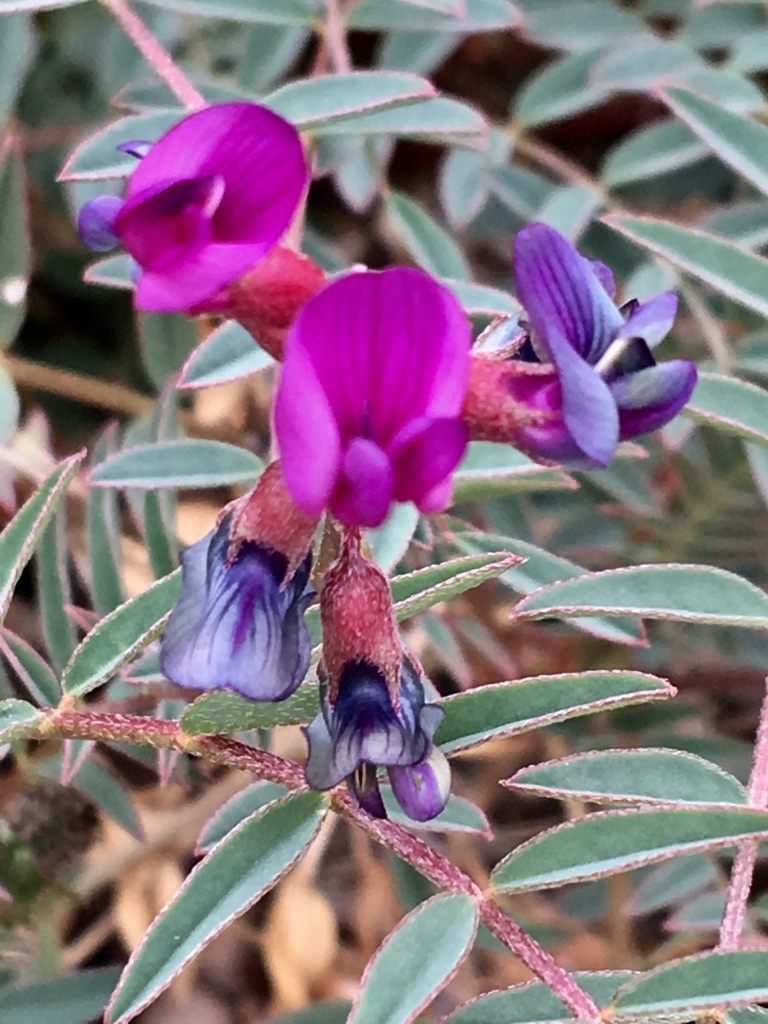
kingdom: Plantae
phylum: Tracheophyta
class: Magnoliopsida
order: Fabales
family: Fabaceae
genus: Astragalus
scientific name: Astragalus lentiginosus
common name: Freckled milkvetch
